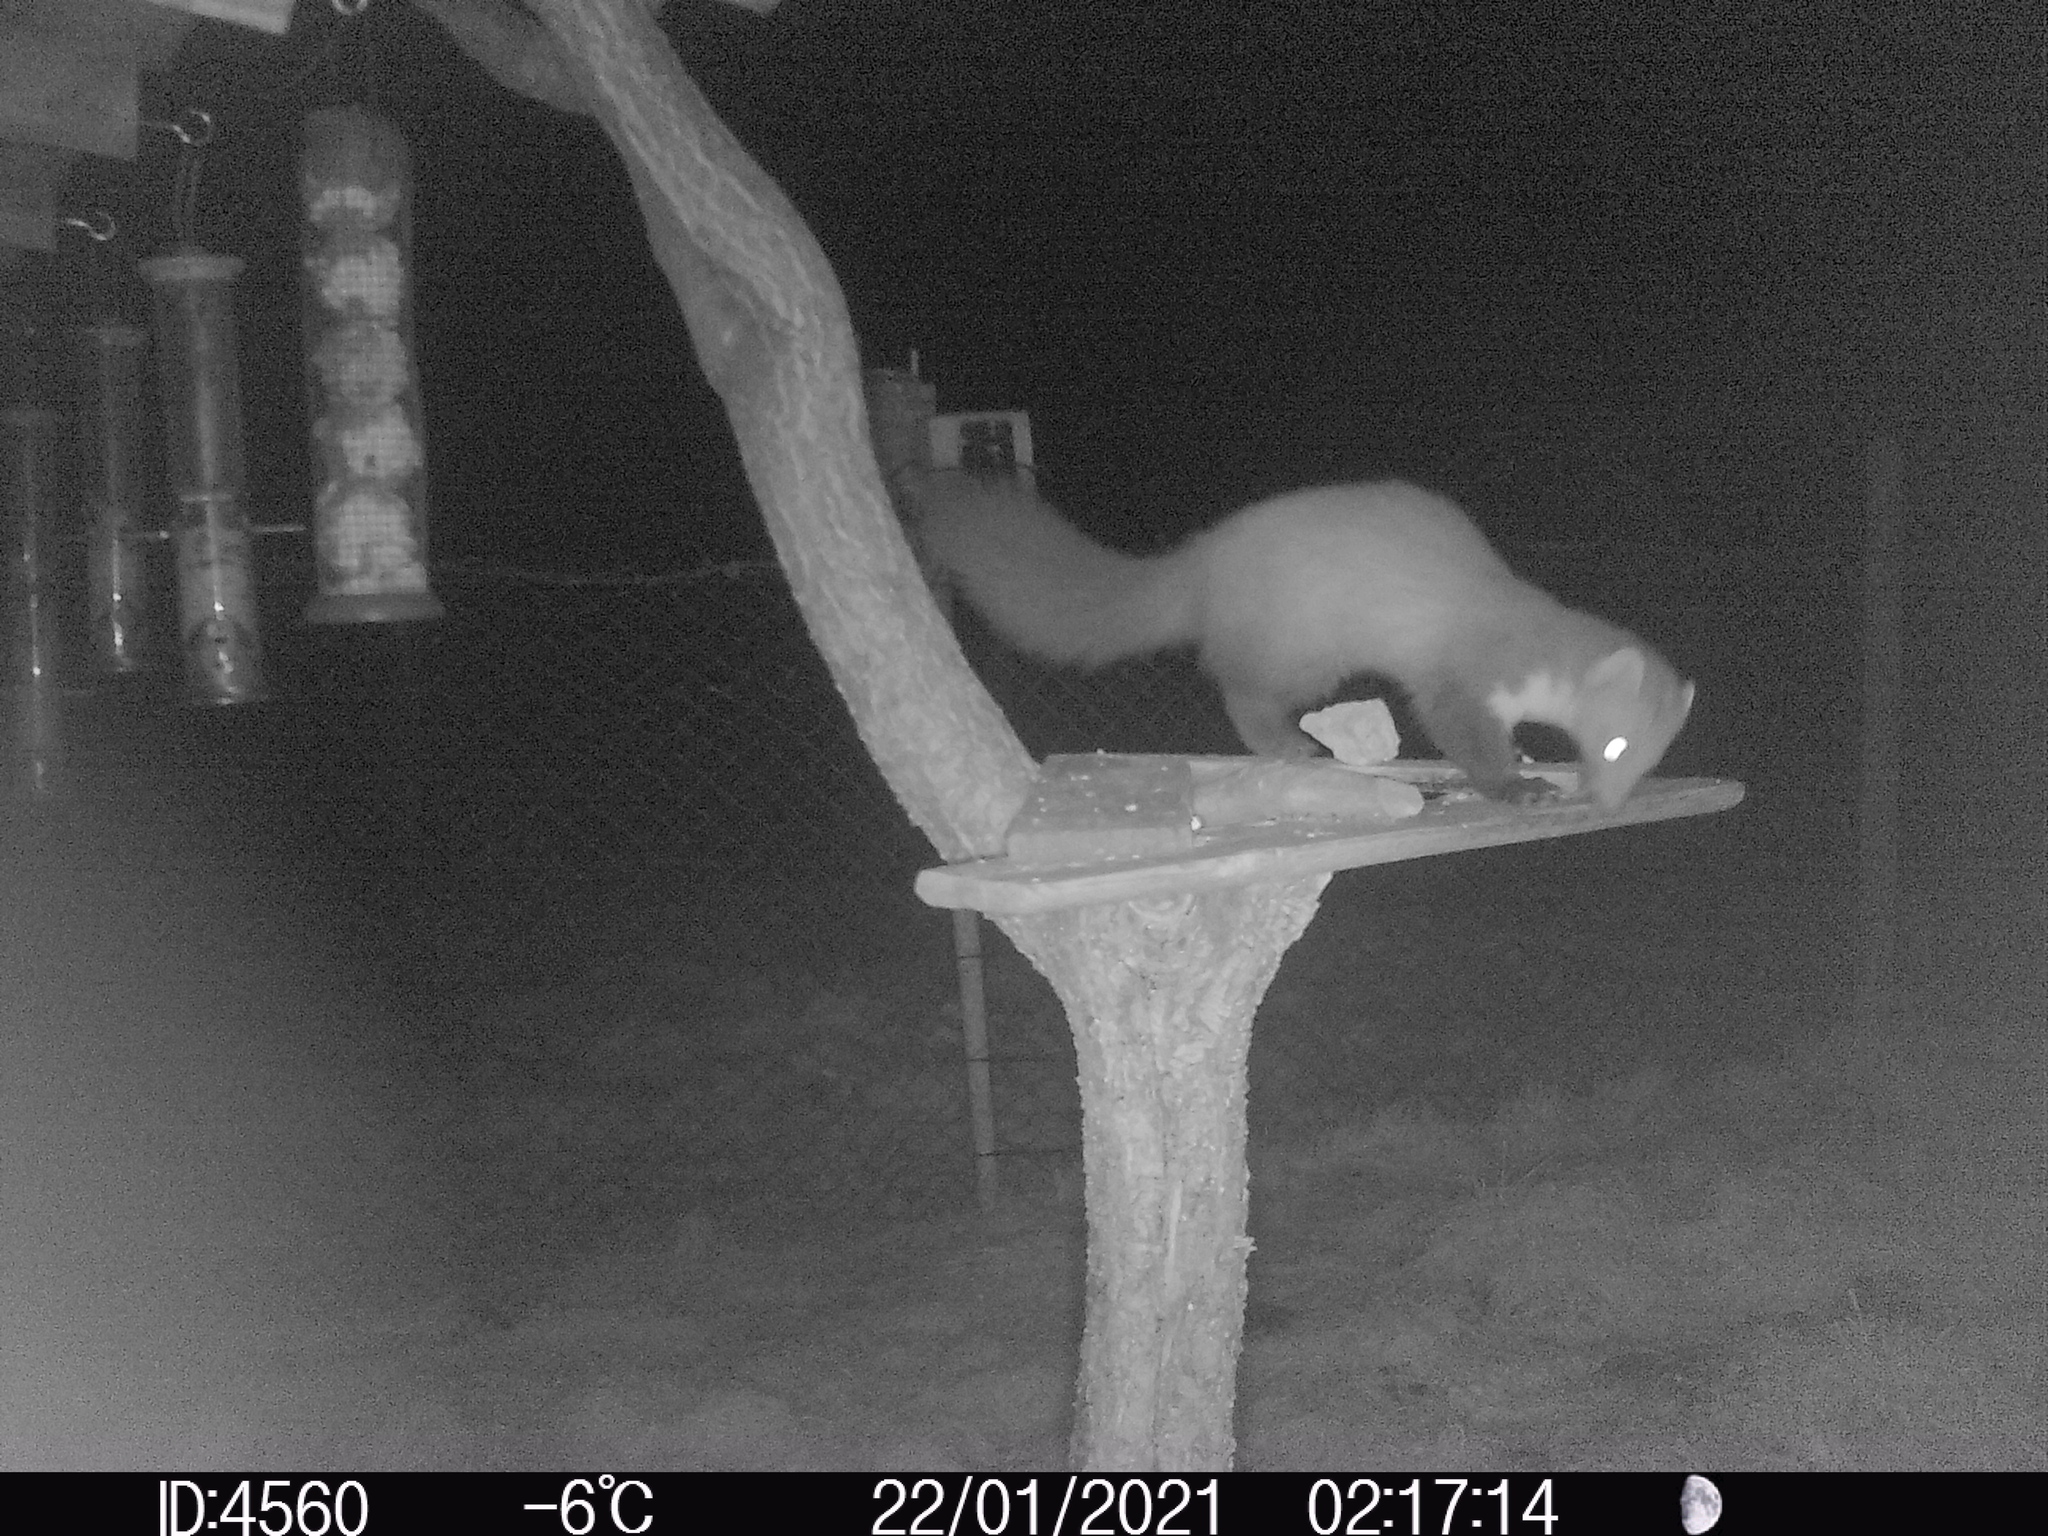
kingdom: Animalia
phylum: Chordata
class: Mammalia
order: Carnivora
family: Mustelidae
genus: Martes
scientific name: Martes foina
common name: Beech marten
